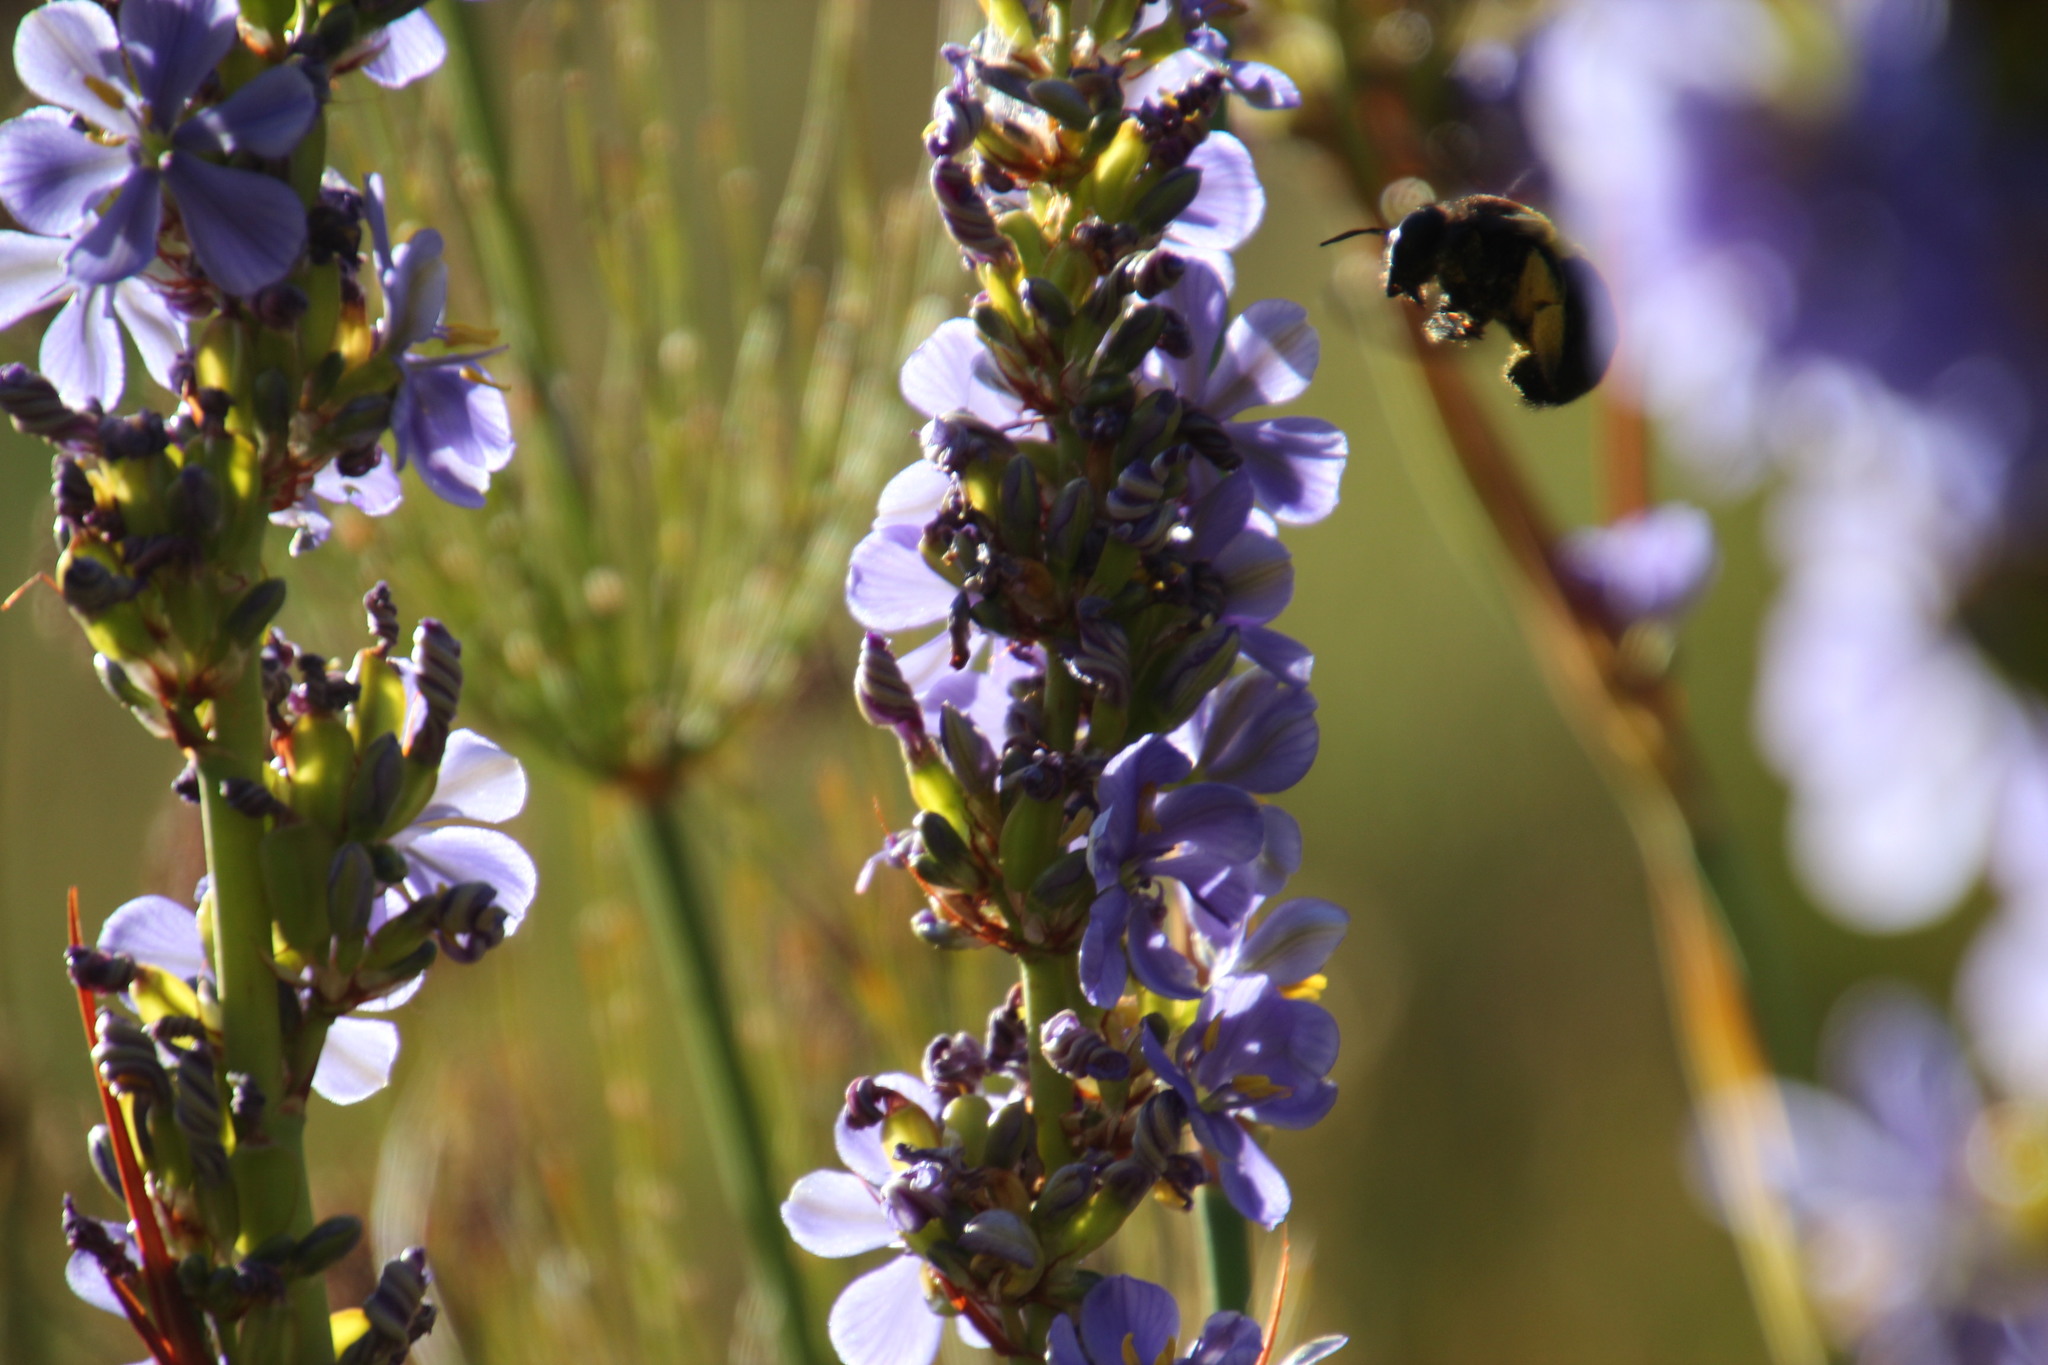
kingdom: Plantae
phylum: Tracheophyta
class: Liliopsida
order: Asparagales
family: Iridaceae
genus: Aristea
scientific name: Aristea capitata
